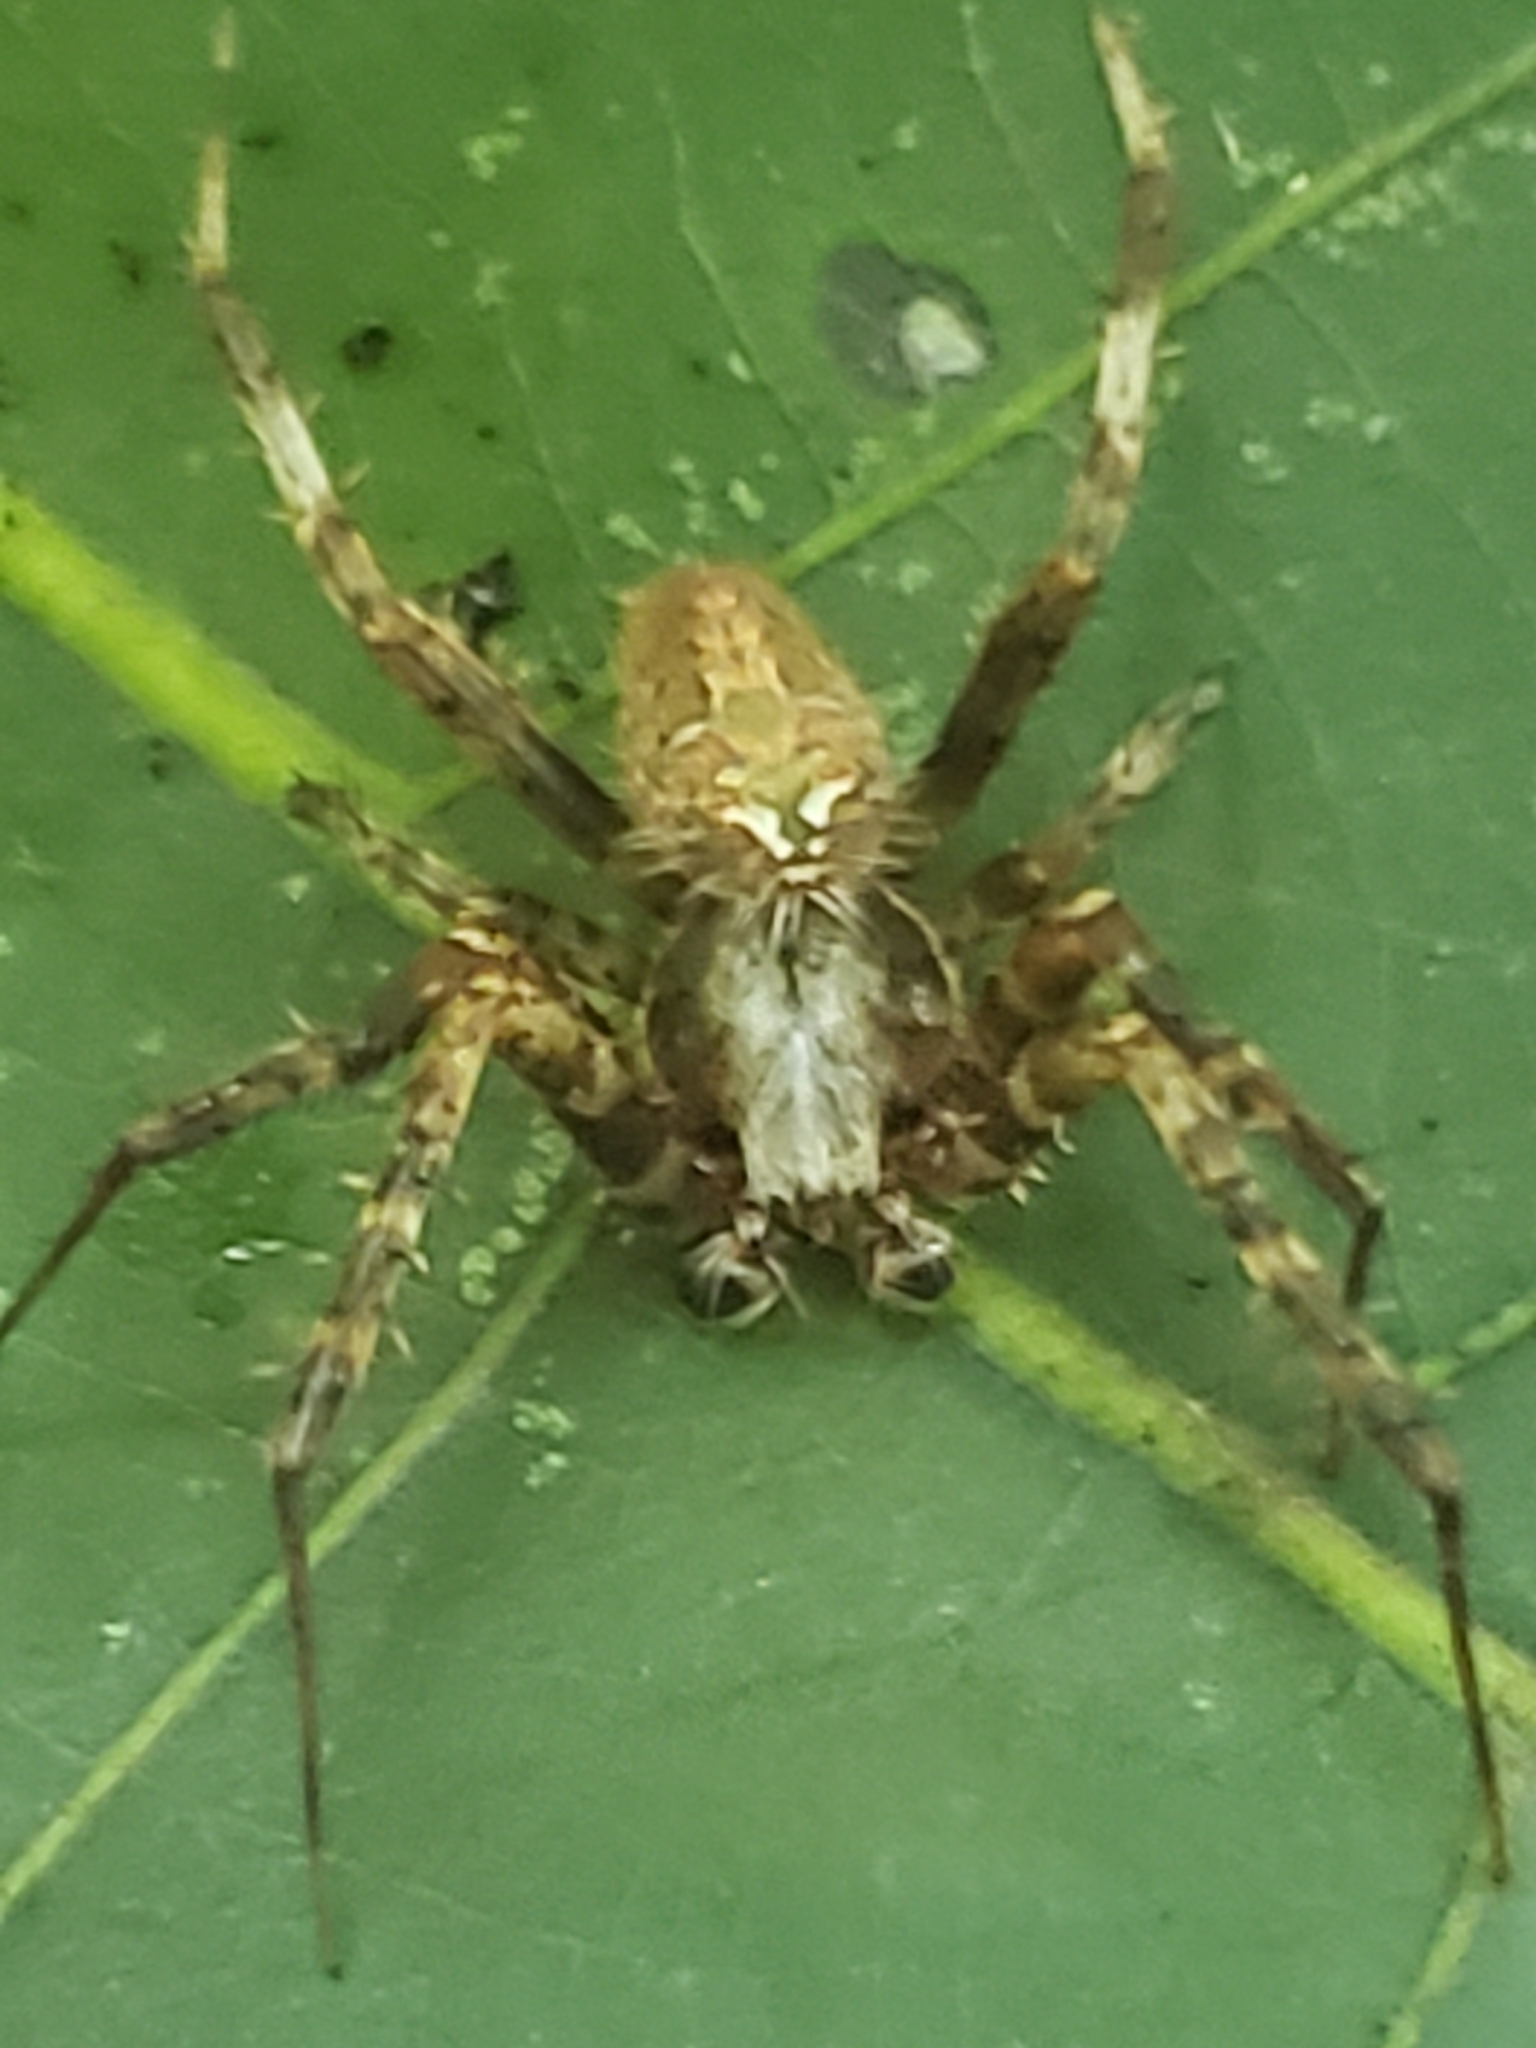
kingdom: Animalia
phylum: Arthropoda
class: Arachnida
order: Araneae
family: Araneidae
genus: Neoscona
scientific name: Neoscona arabesca
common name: Orb weavers
